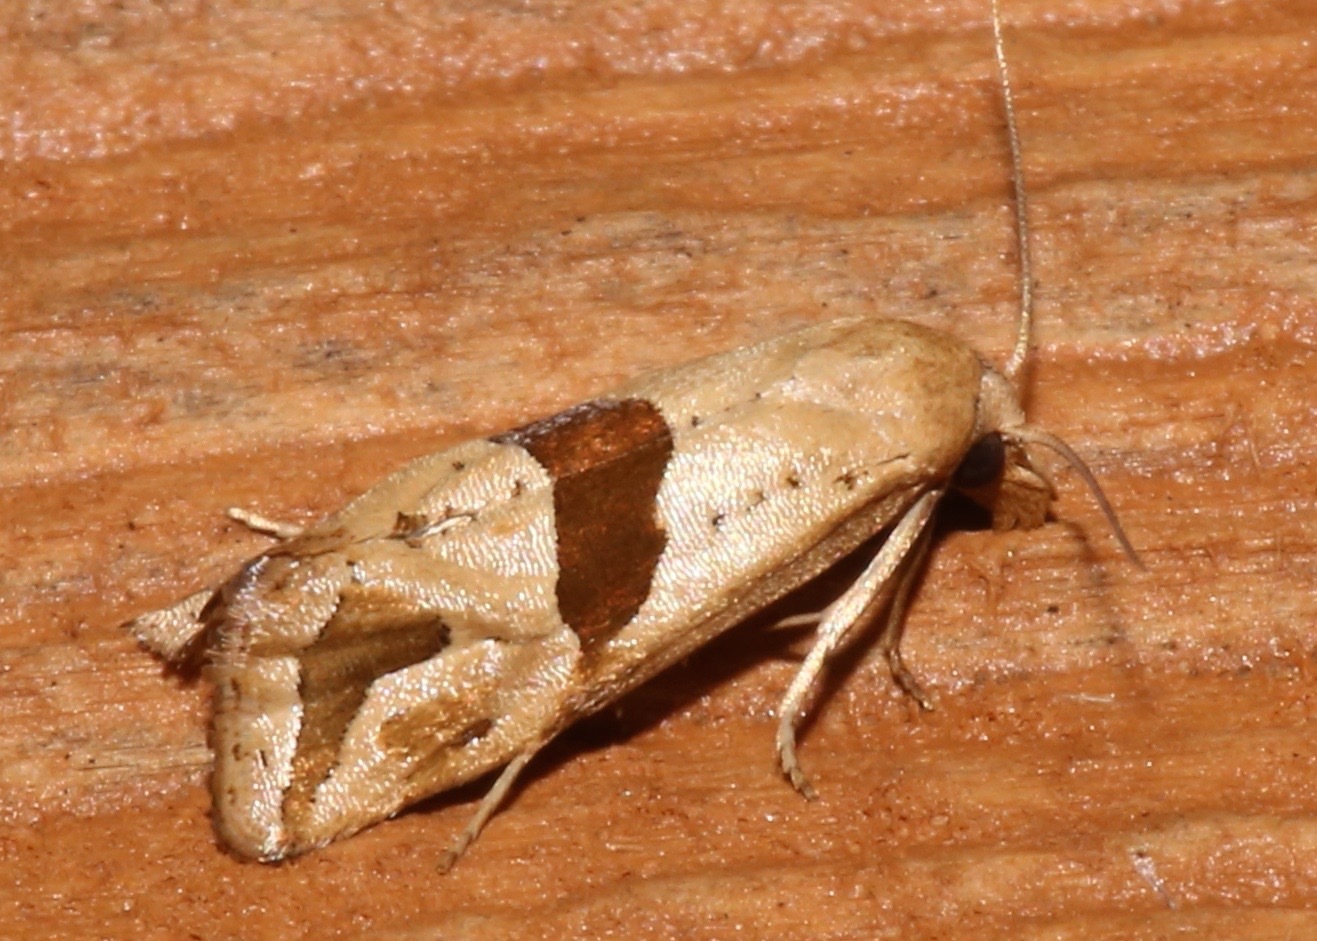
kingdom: Animalia
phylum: Arthropoda
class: Insecta
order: Lepidoptera
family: Tortricidae
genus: Eugnosta
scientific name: Eugnosta sartana
